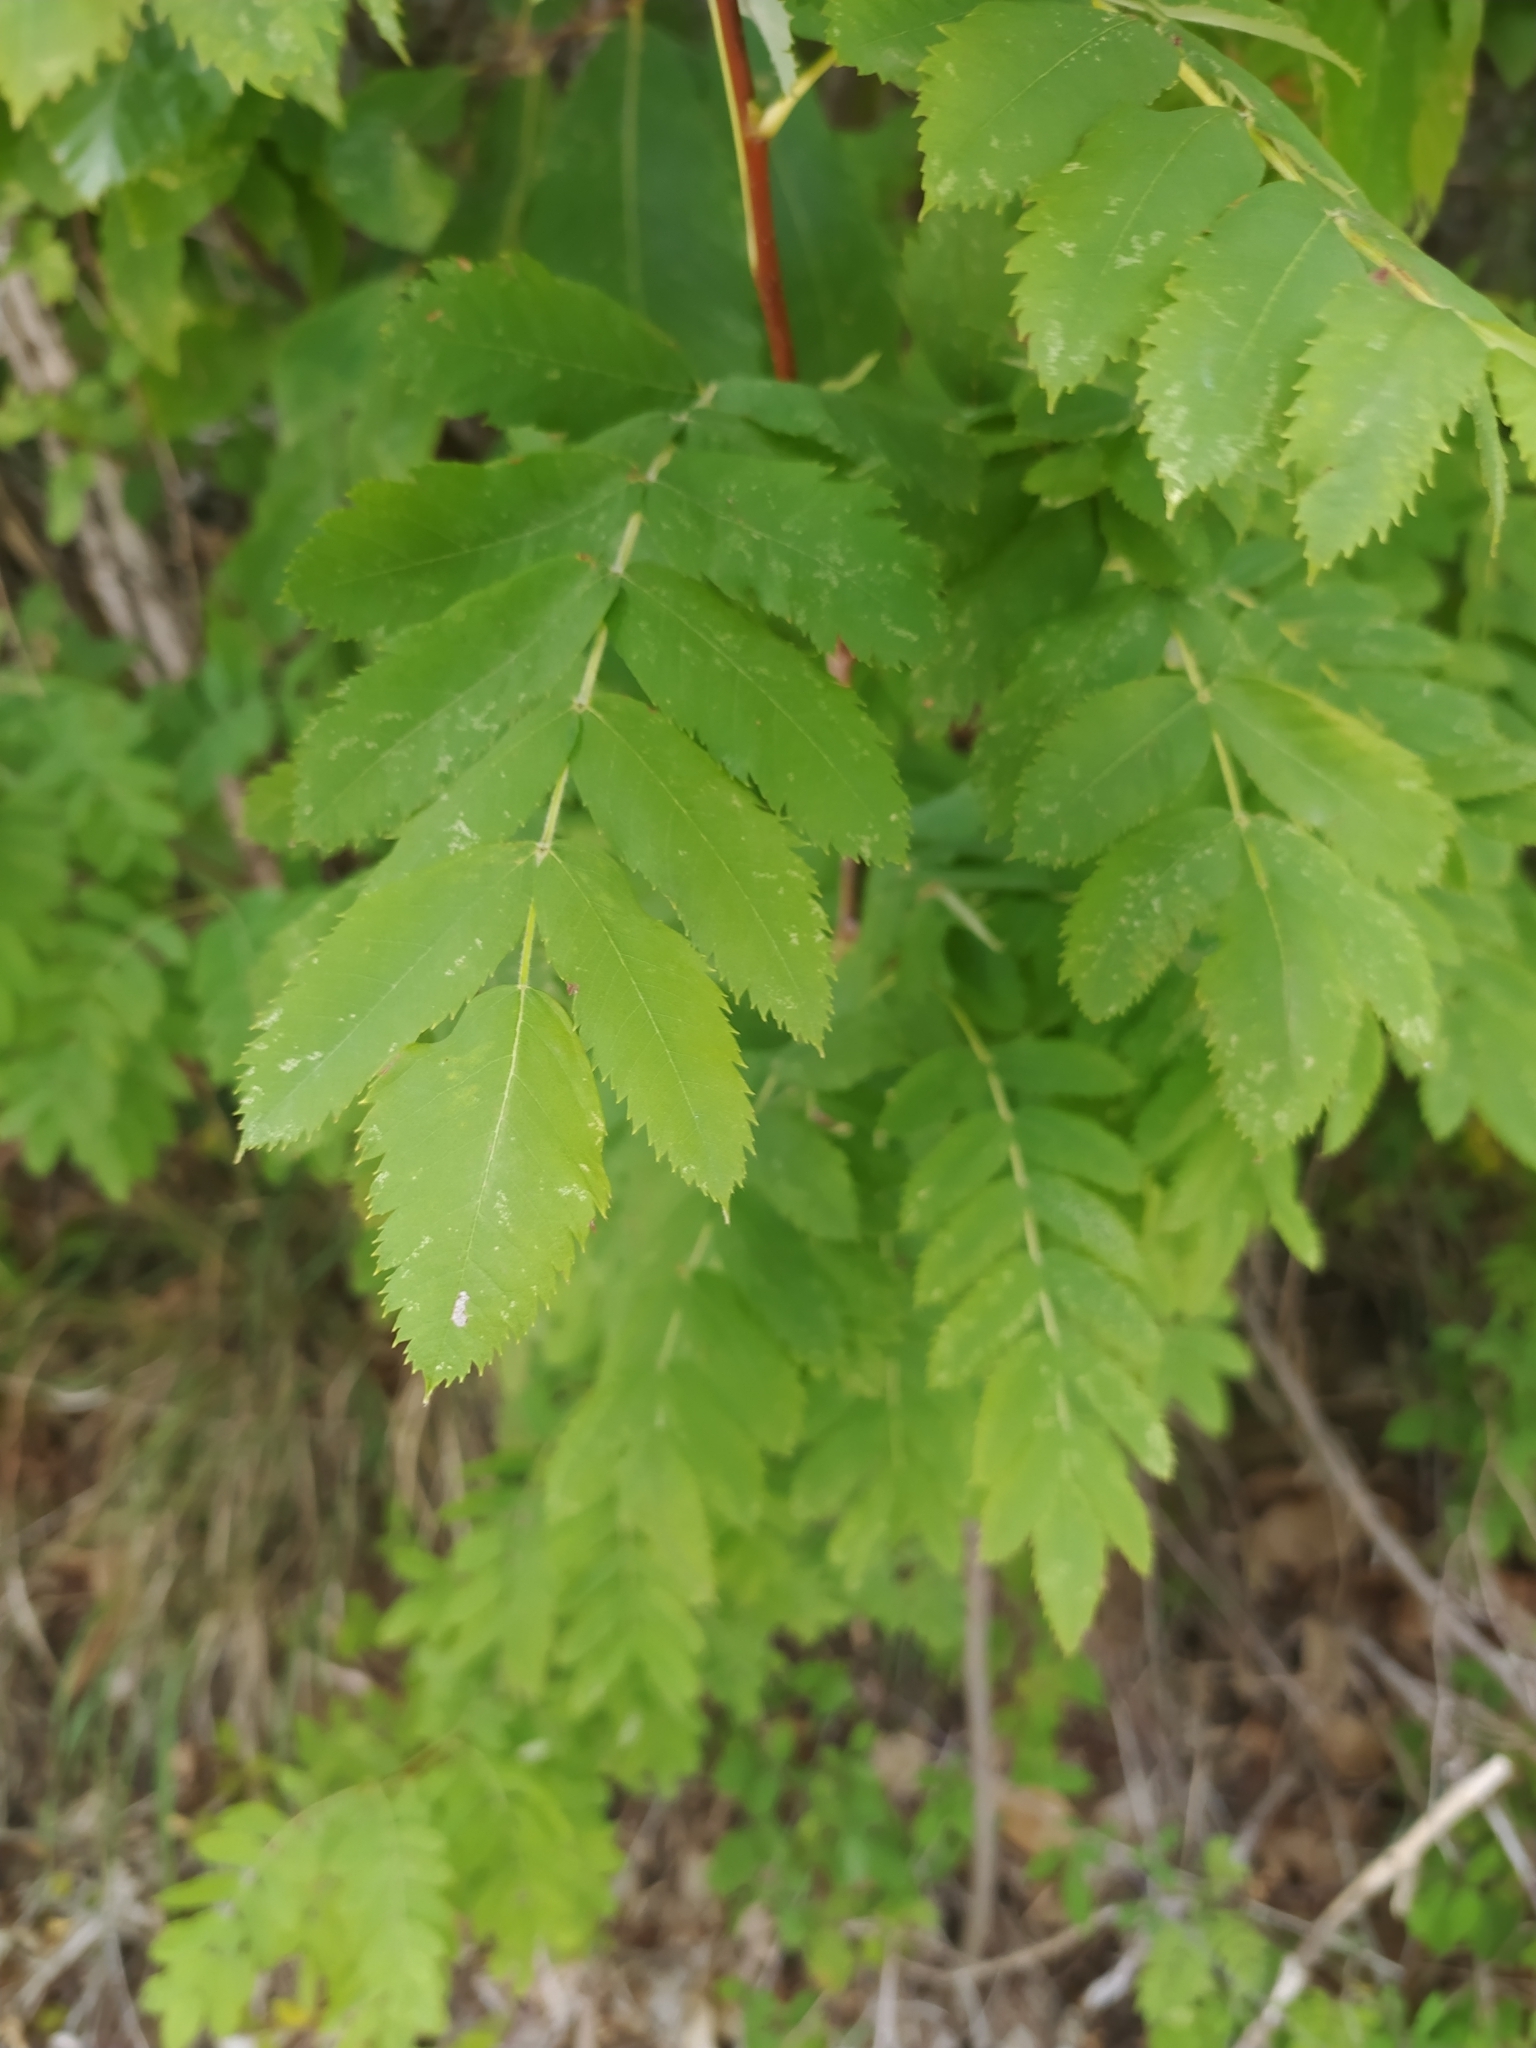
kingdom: Plantae
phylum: Tracheophyta
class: Magnoliopsida
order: Rosales
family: Rosaceae
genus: Sorbus
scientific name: Sorbus aucuparia
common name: Rowan
